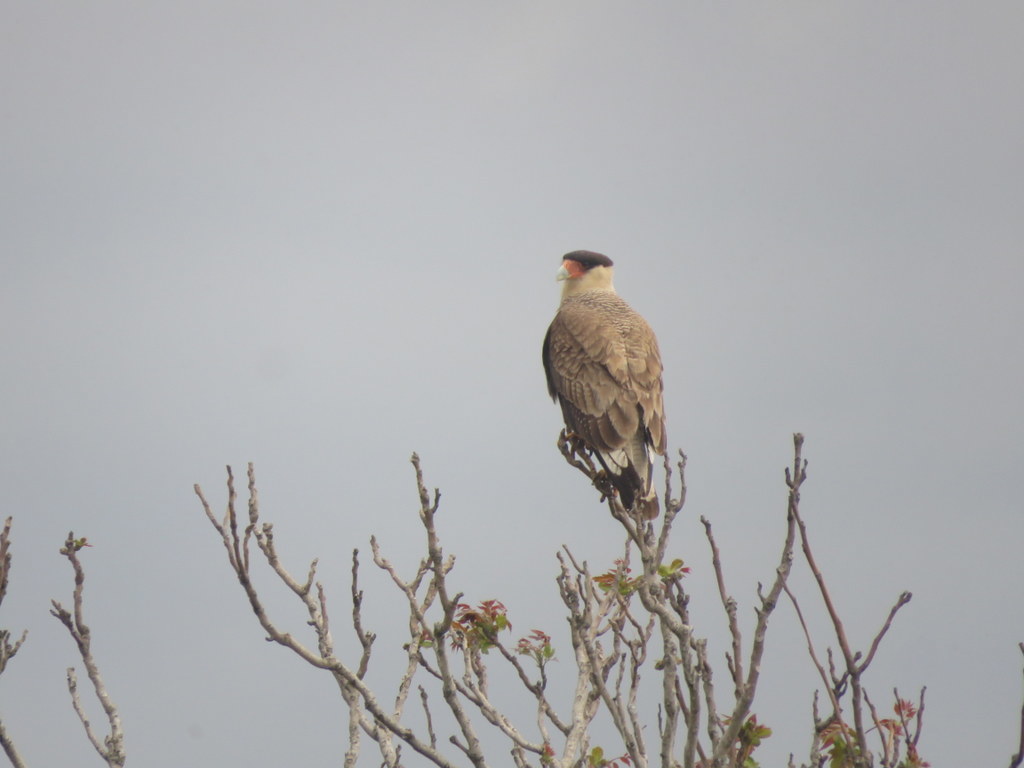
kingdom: Animalia
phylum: Chordata
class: Aves
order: Falconiformes
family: Falconidae
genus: Caracara
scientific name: Caracara plancus
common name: Southern caracara
